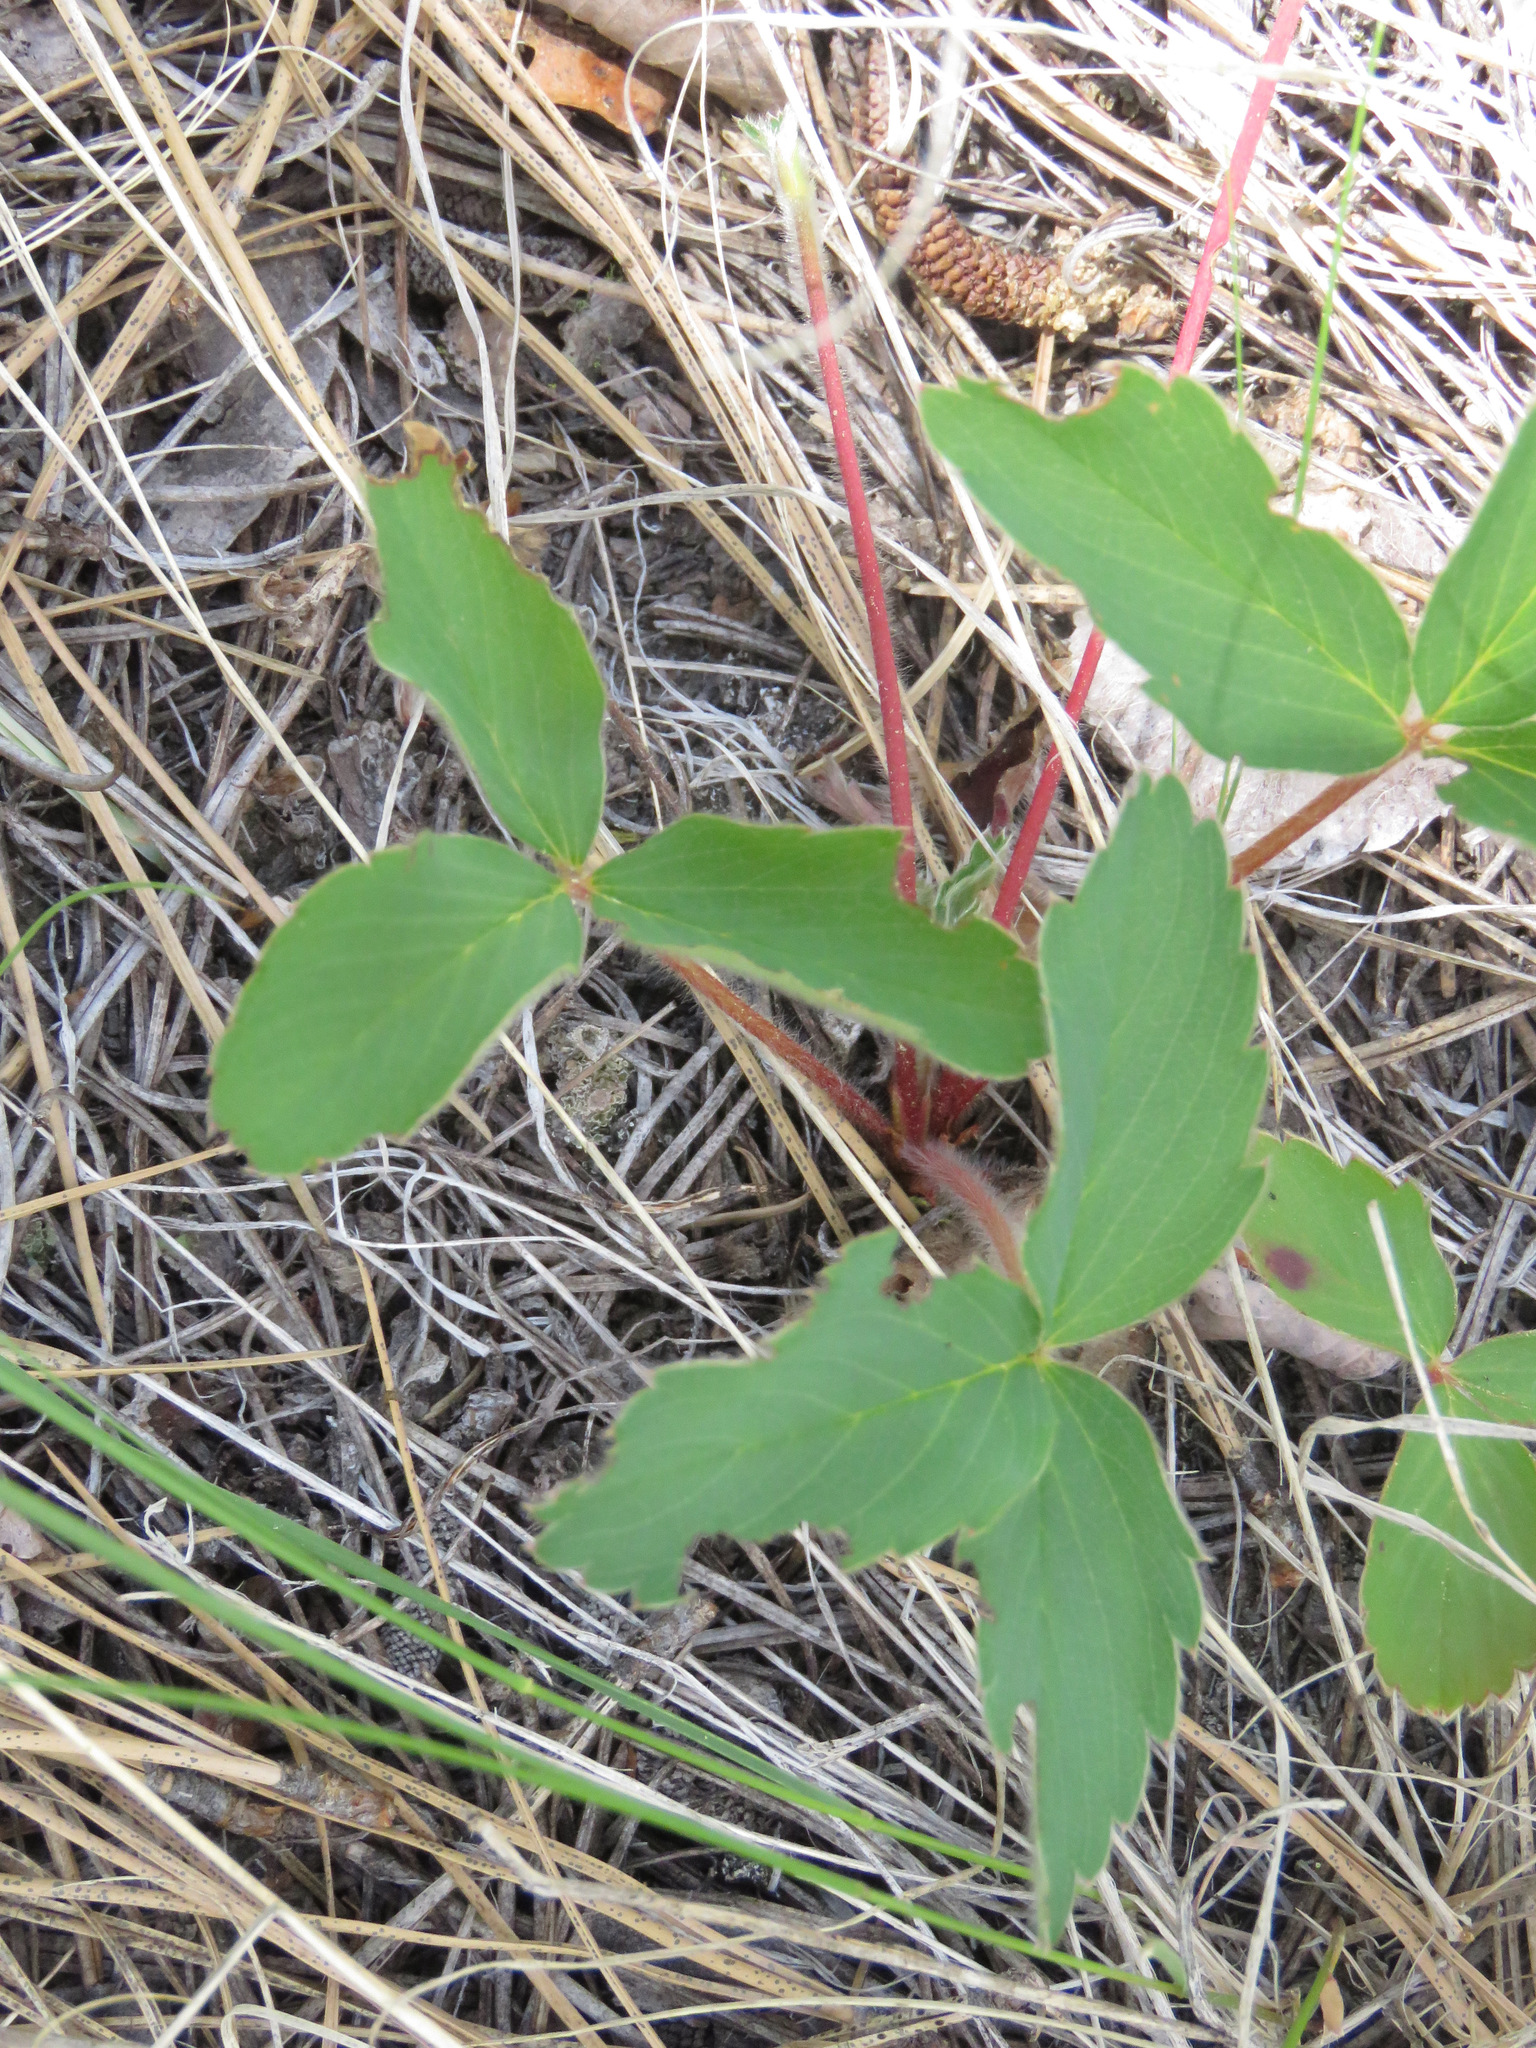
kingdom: Plantae
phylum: Tracheophyta
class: Magnoliopsida
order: Rosales
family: Rosaceae
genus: Fragaria
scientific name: Fragaria virginiana
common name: Thickleaved wild strawberry
